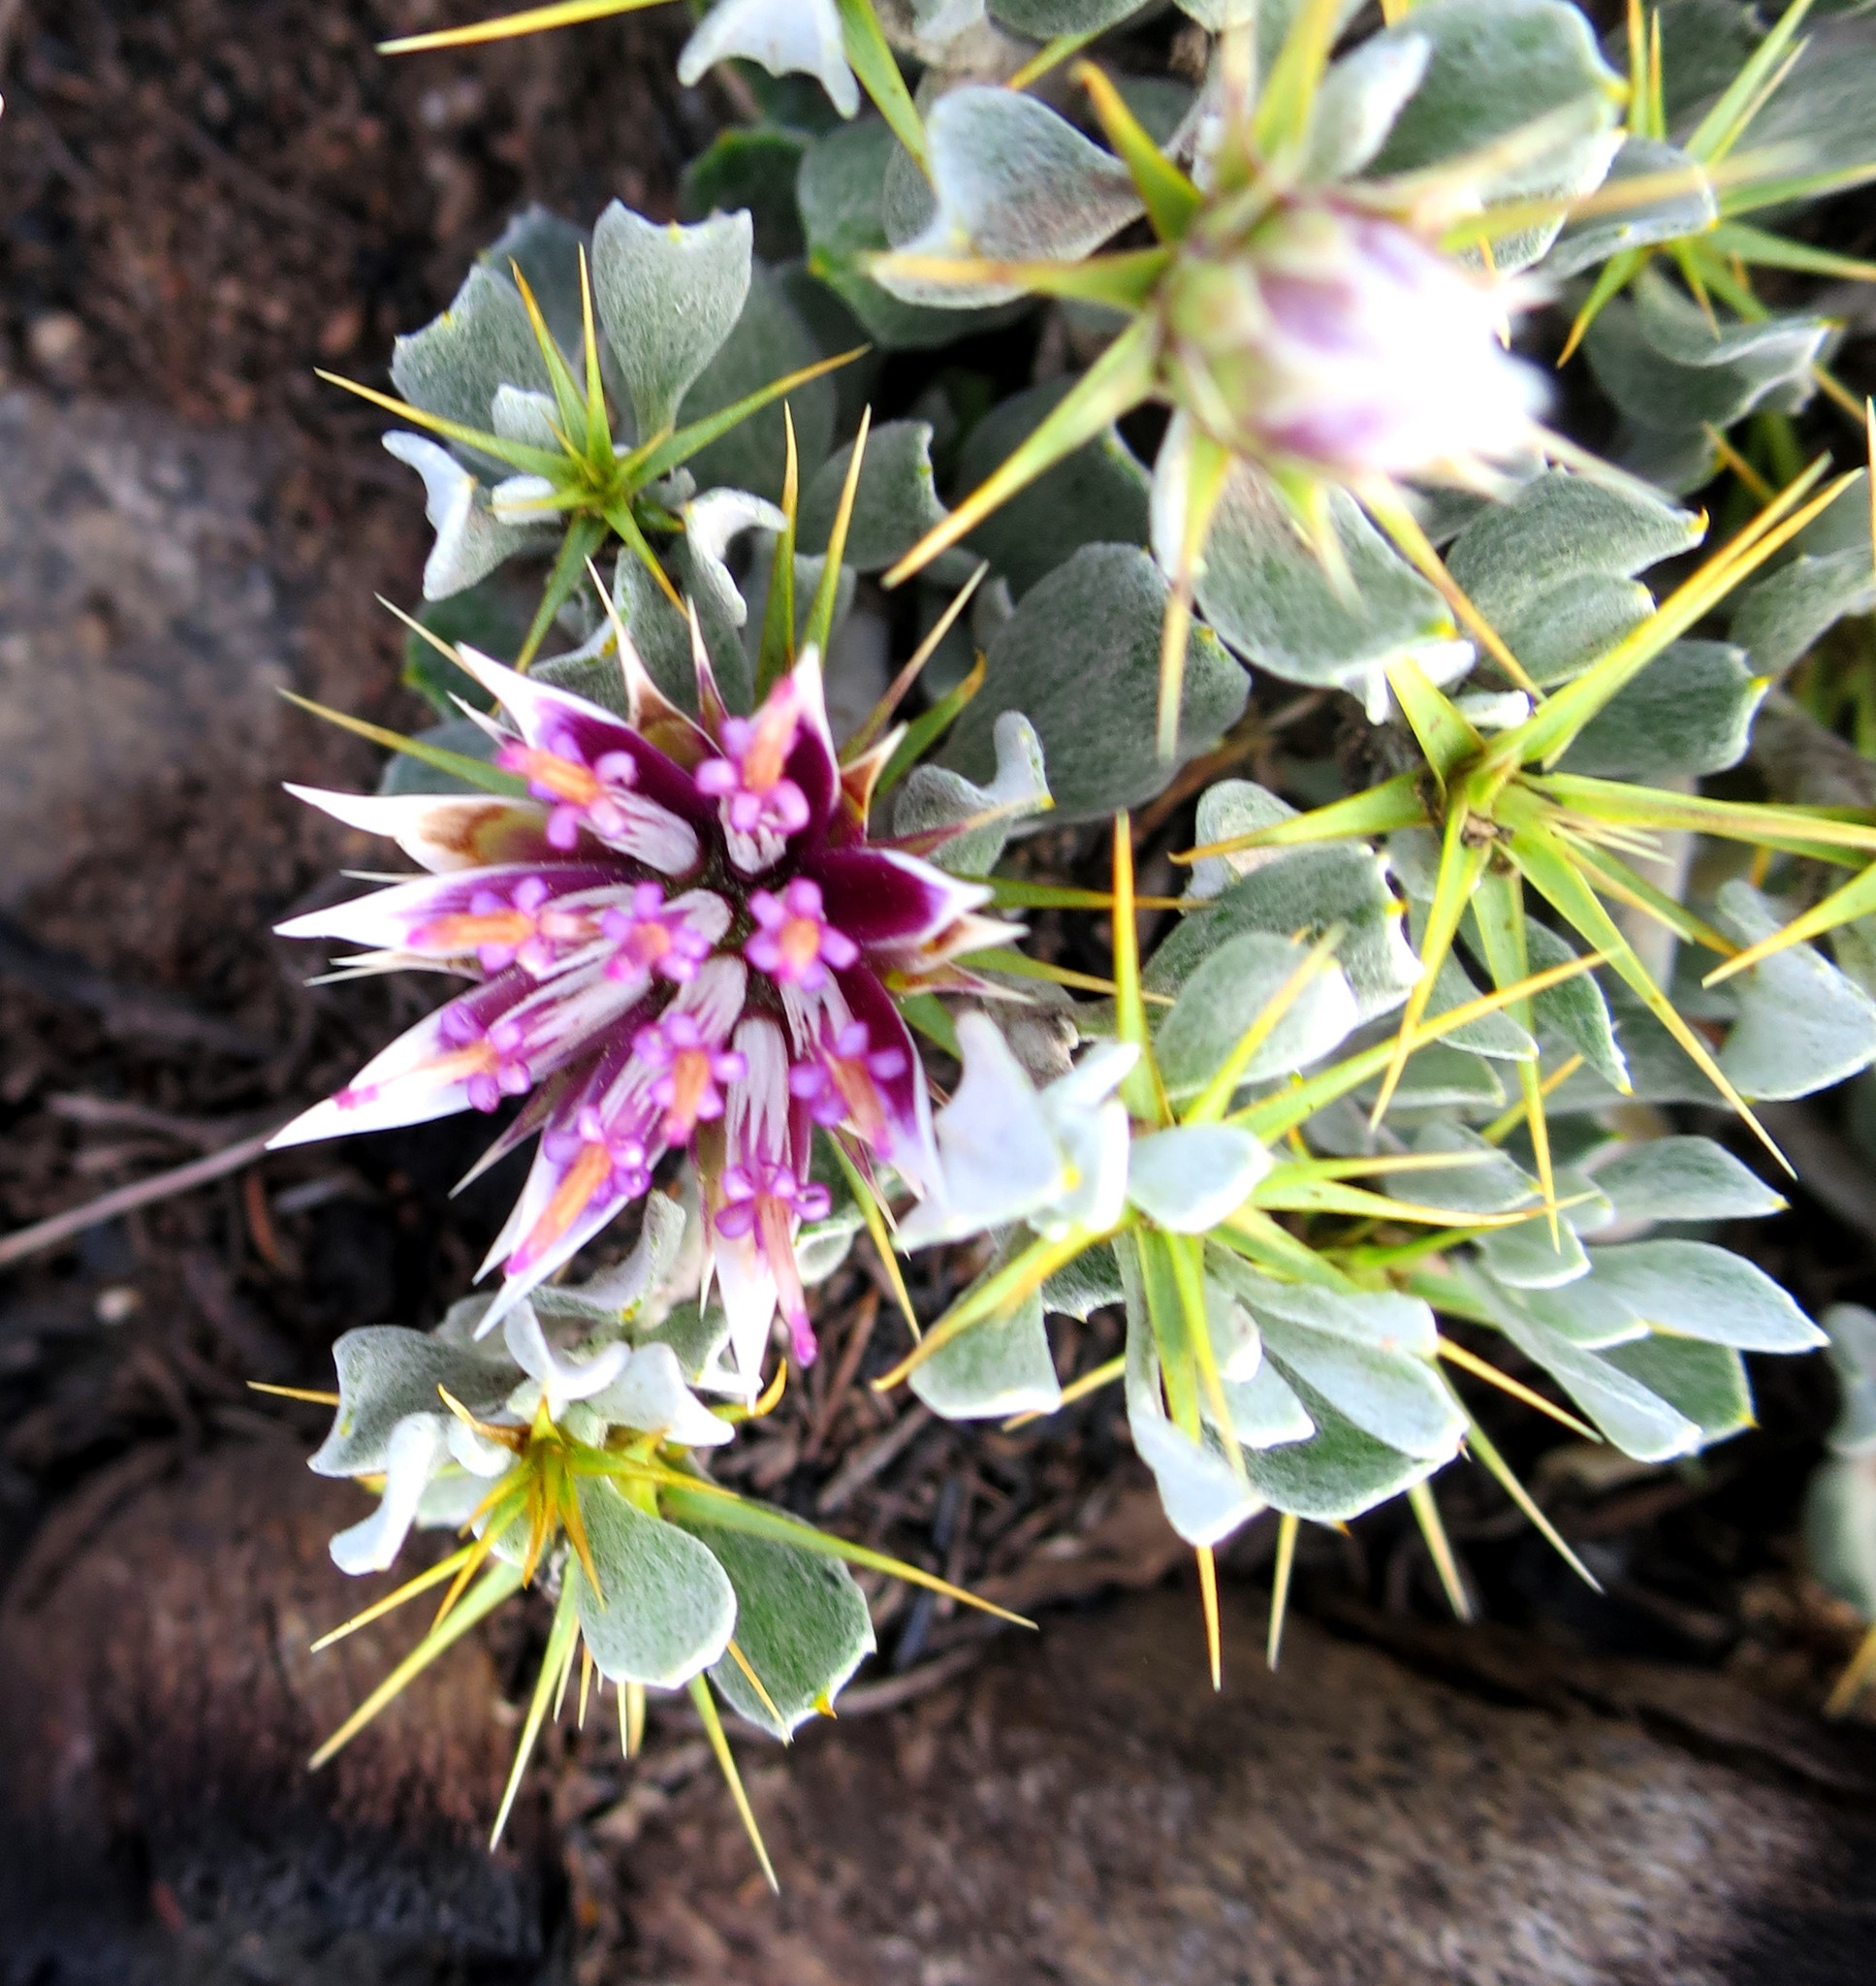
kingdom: Plantae
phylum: Tracheophyta
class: Magnoliopsida
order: Asterales
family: Asteraceae
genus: Macledium
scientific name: Macledium spinosum
